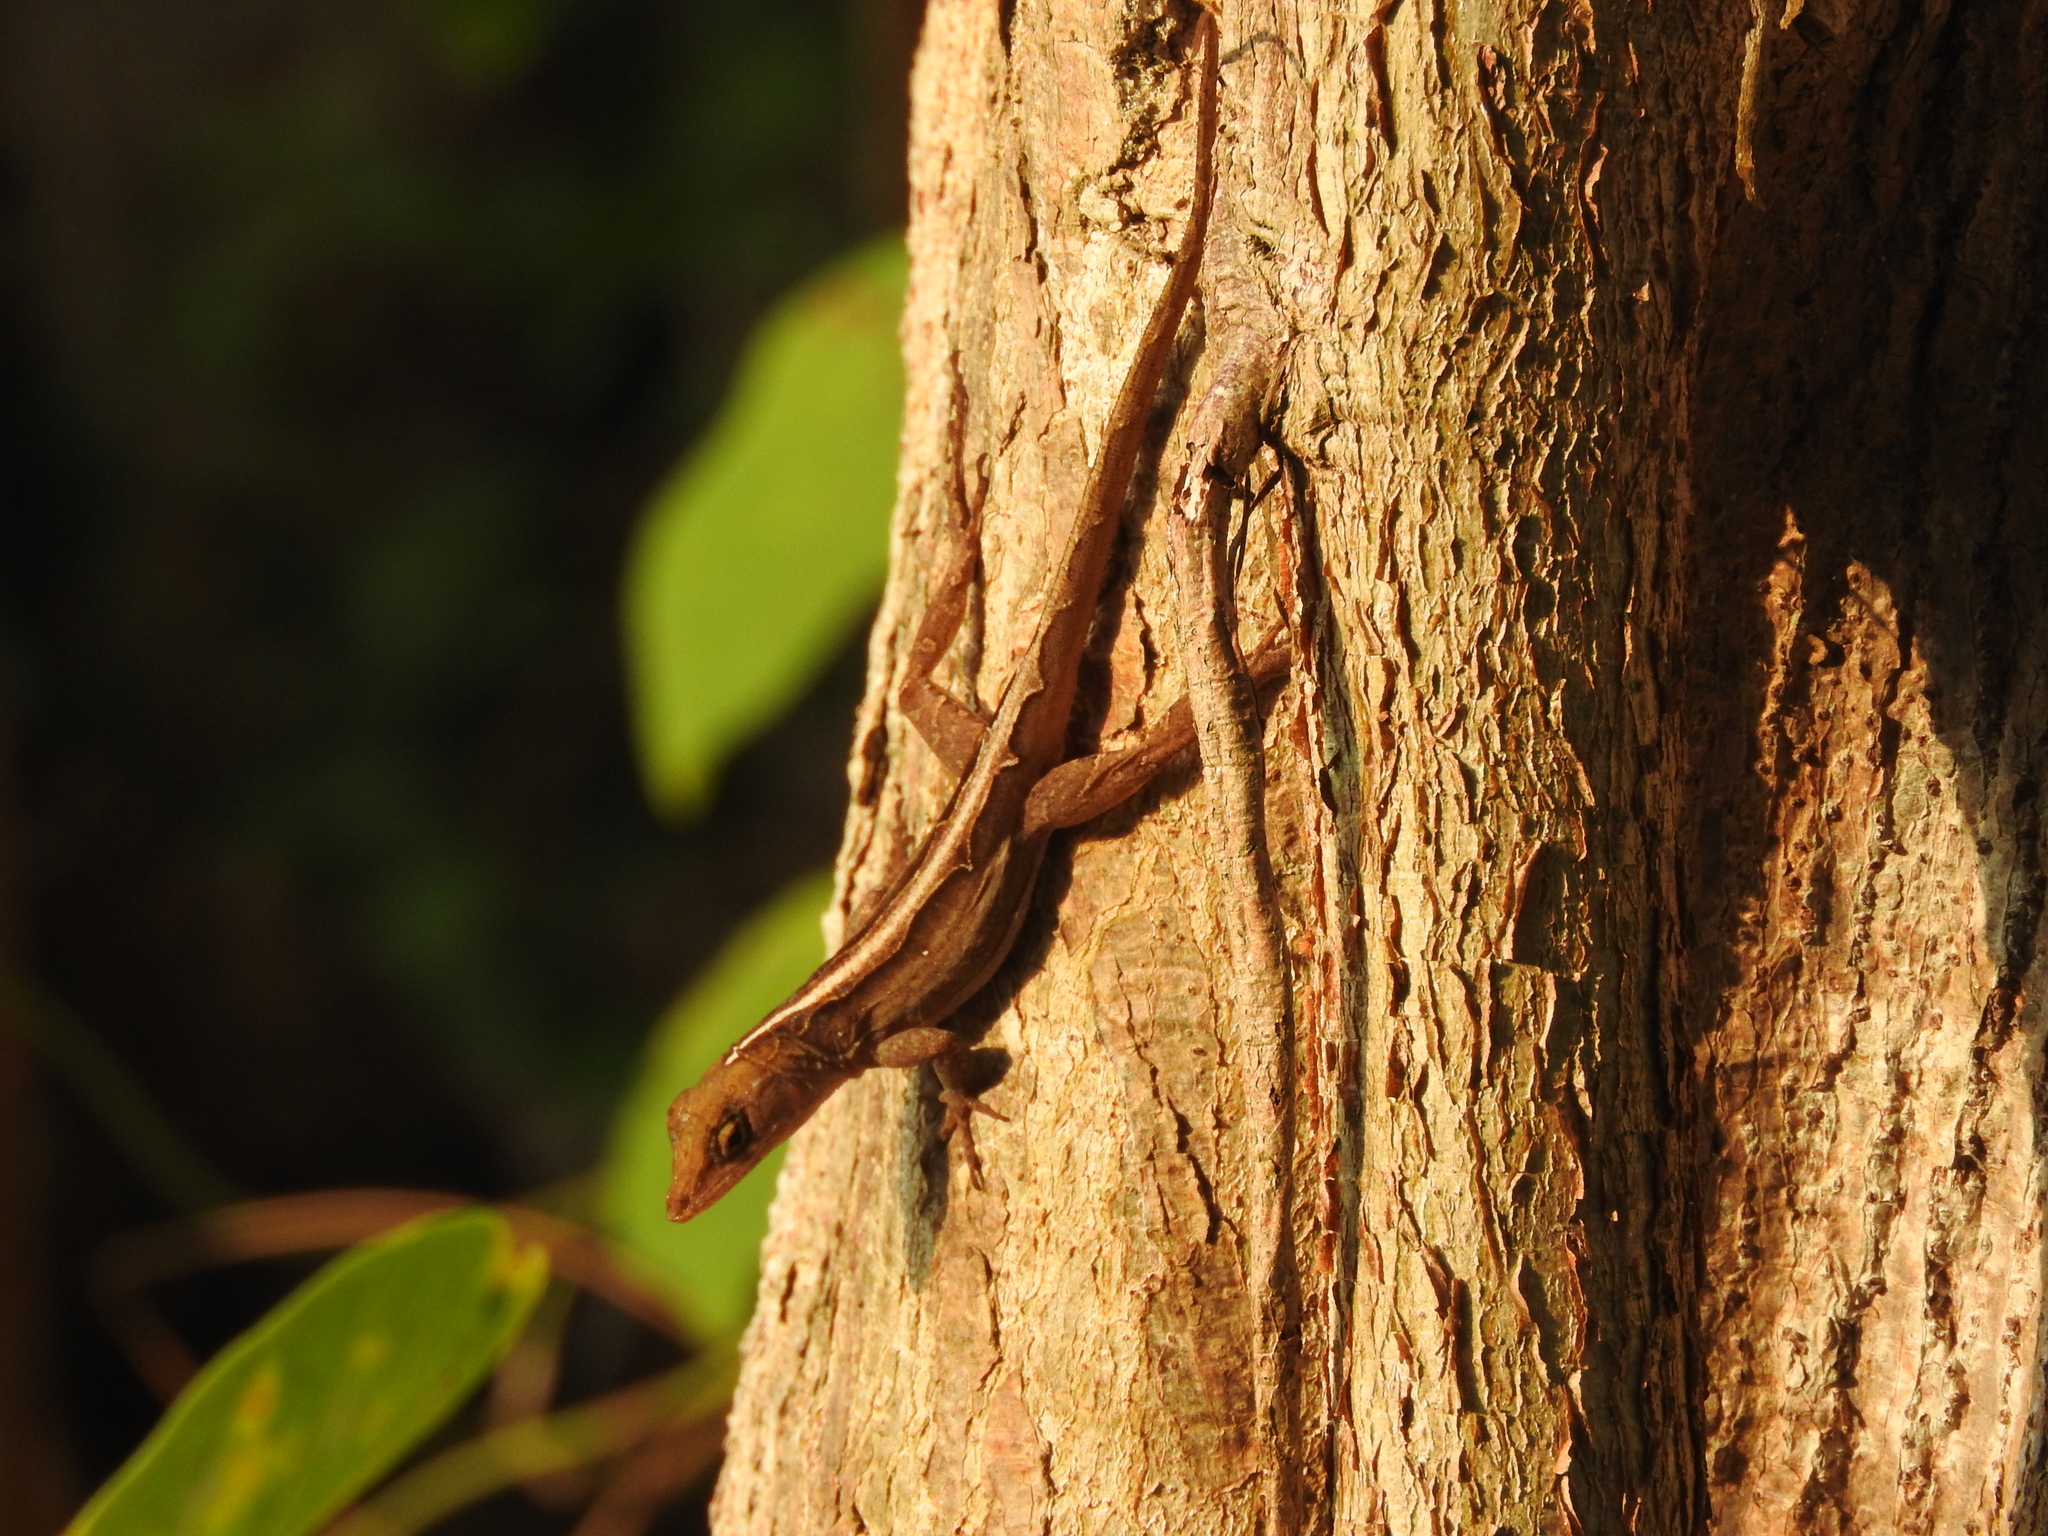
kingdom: Animalia
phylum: Chordata
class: Squamata
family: Dactyloidae
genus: Anolis
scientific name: Anolis sagrei
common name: Brown anole
